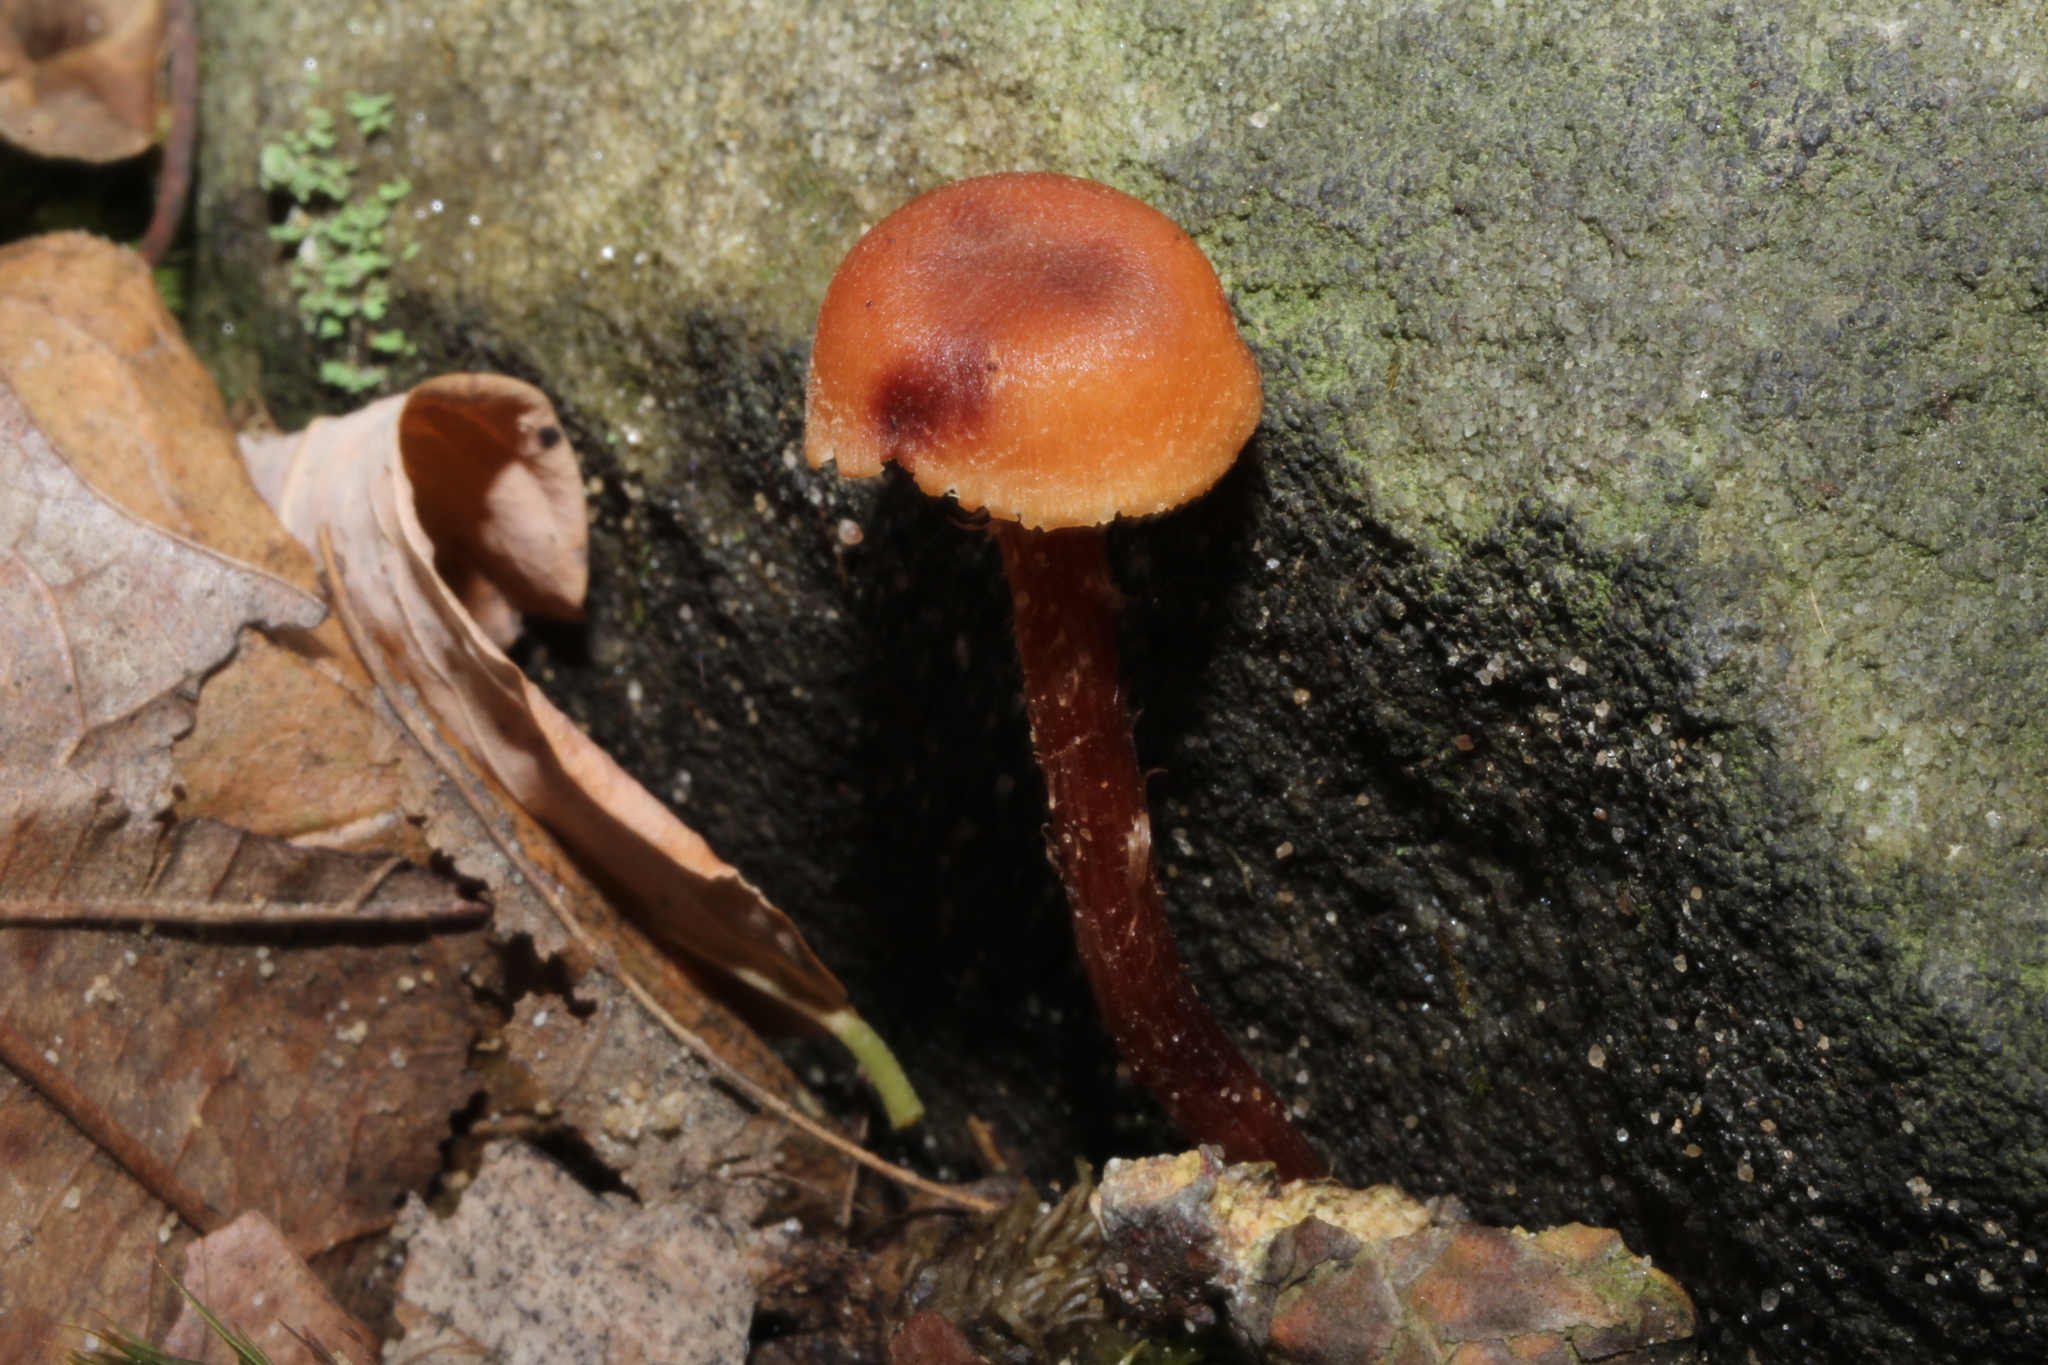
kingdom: Fungi
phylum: Basidiomycota
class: Agaricomycetes
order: Agaricales
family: Hydnangiaceae
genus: Laccaria
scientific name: Laccaria laccata
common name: Deceiver
